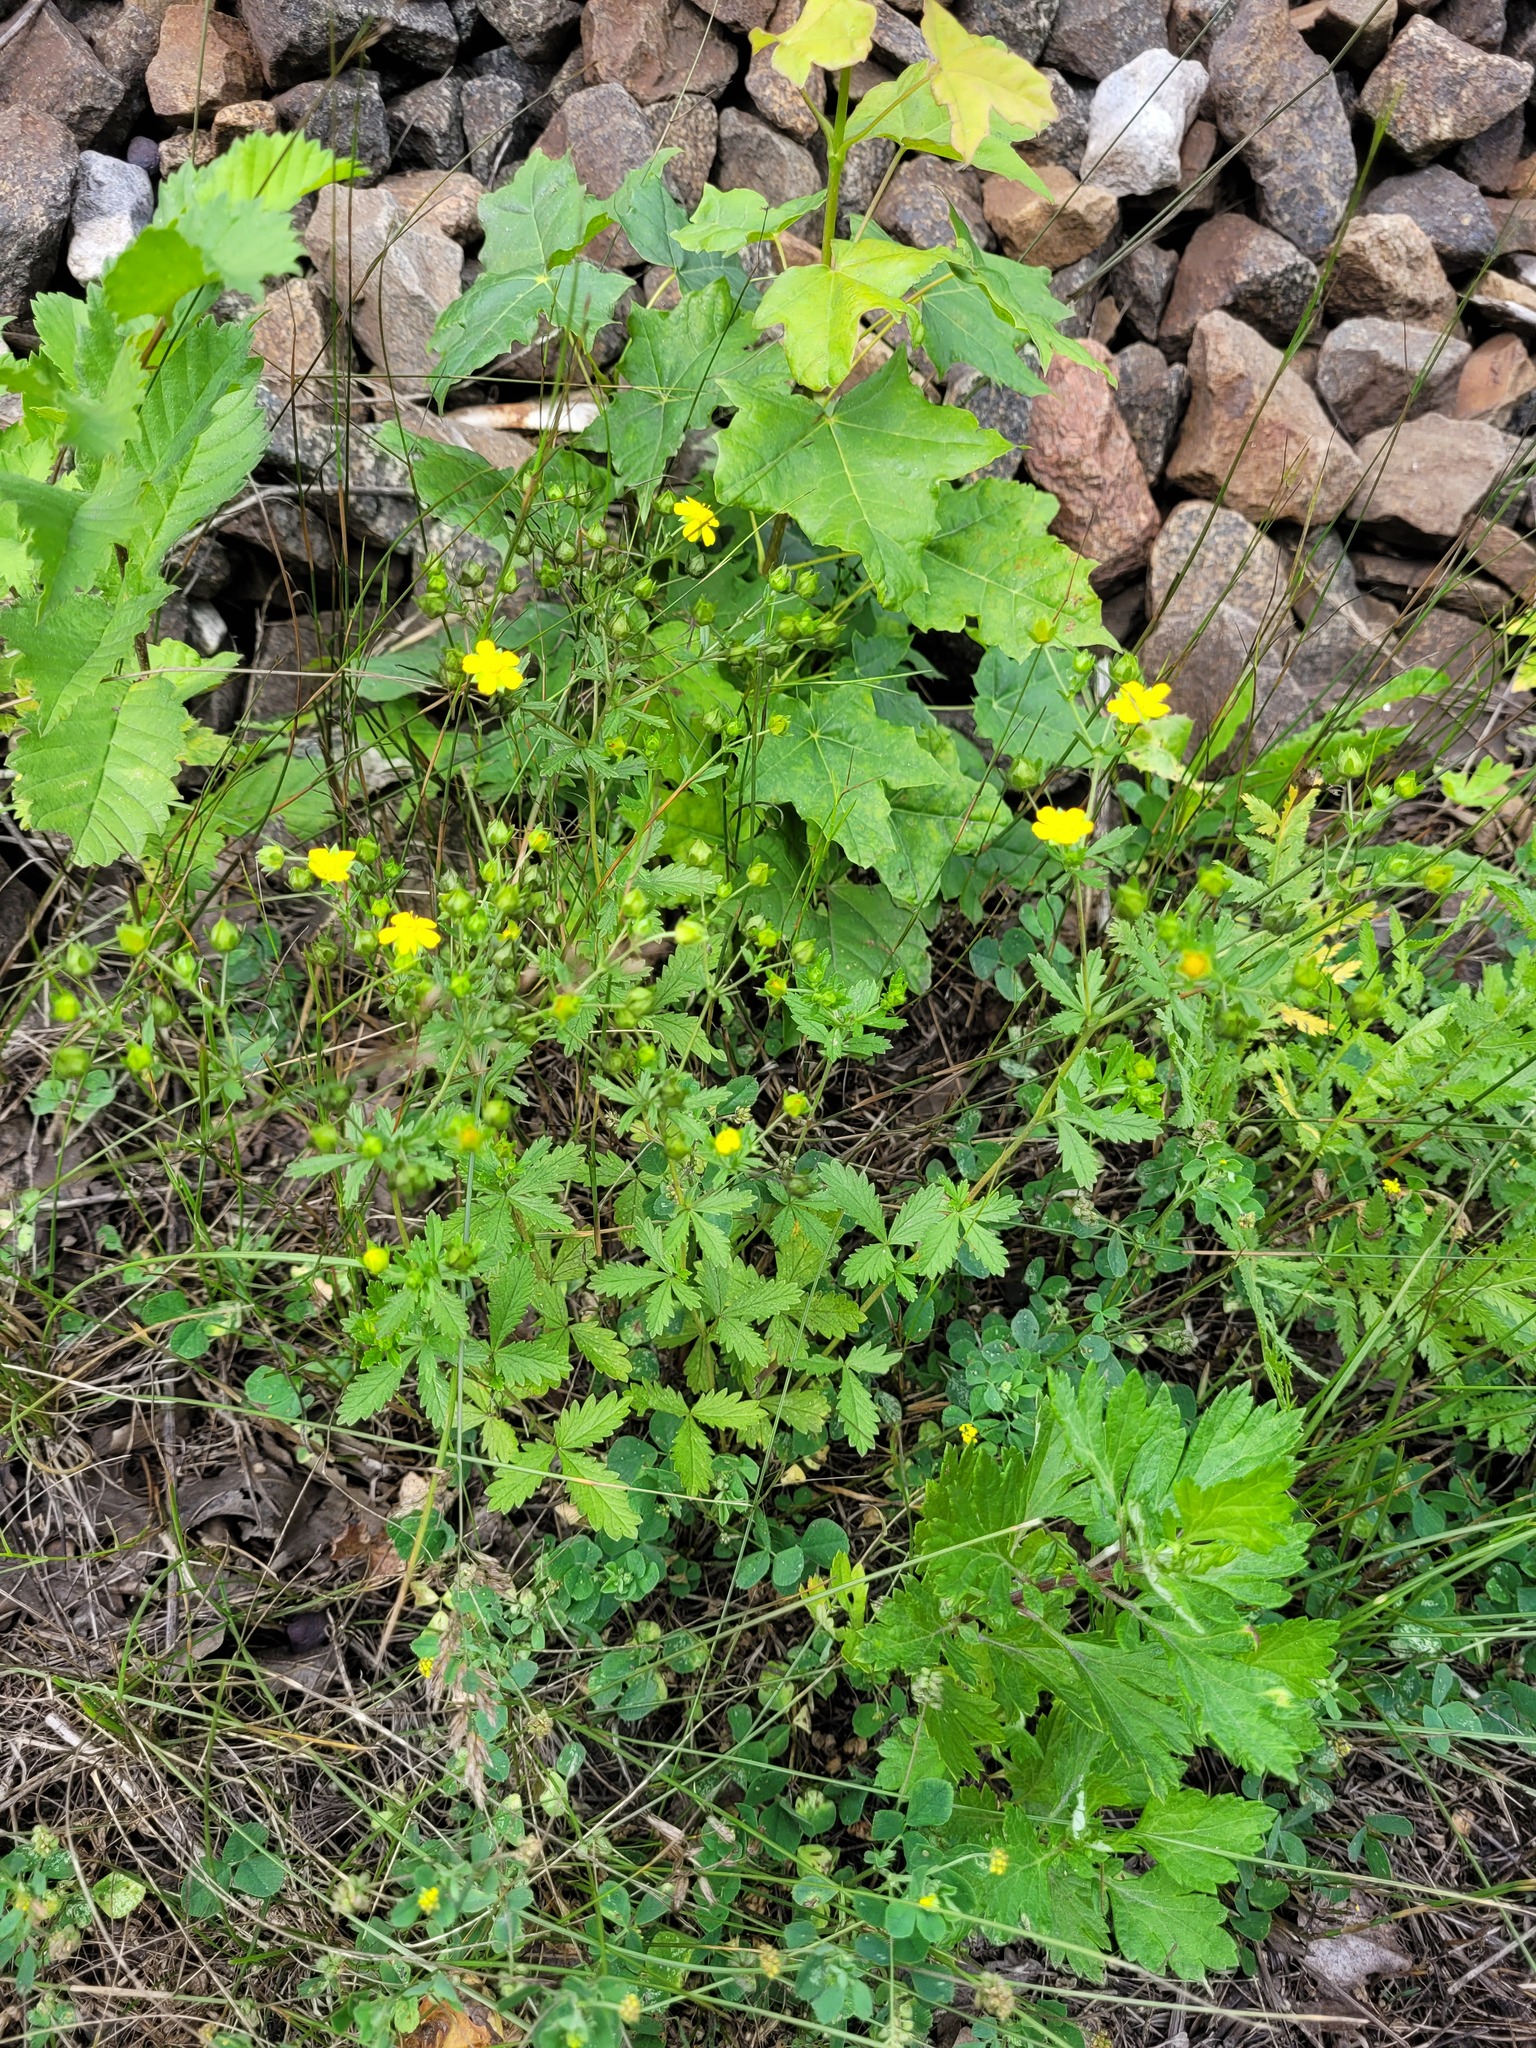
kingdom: Plantae
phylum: Tracheophyta
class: Magnoliopsida
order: Rosales
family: Rosaceae
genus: Potentilla
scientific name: Potentilla intermedia
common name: Downy cinquefoil
